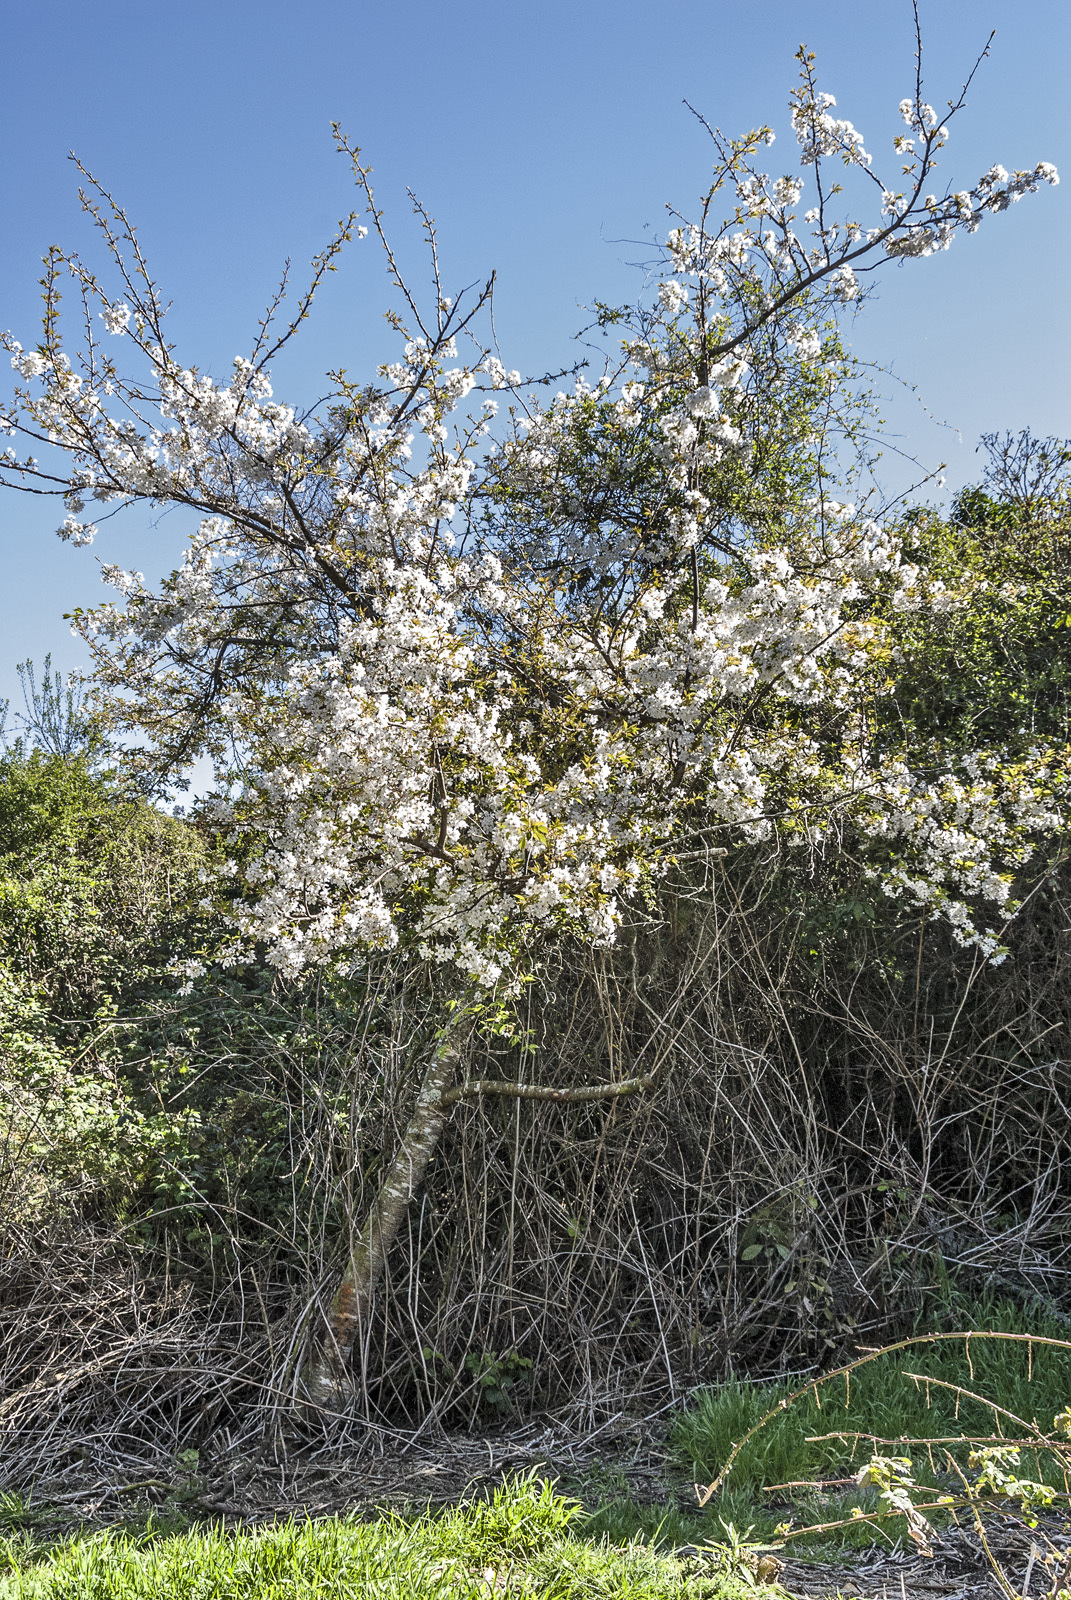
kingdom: Plantae
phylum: Tracheophyta
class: Magnoliopsida
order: Rosales
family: Rosaceae
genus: Prunus
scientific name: Prunus serrulata
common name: Japanese cherry
